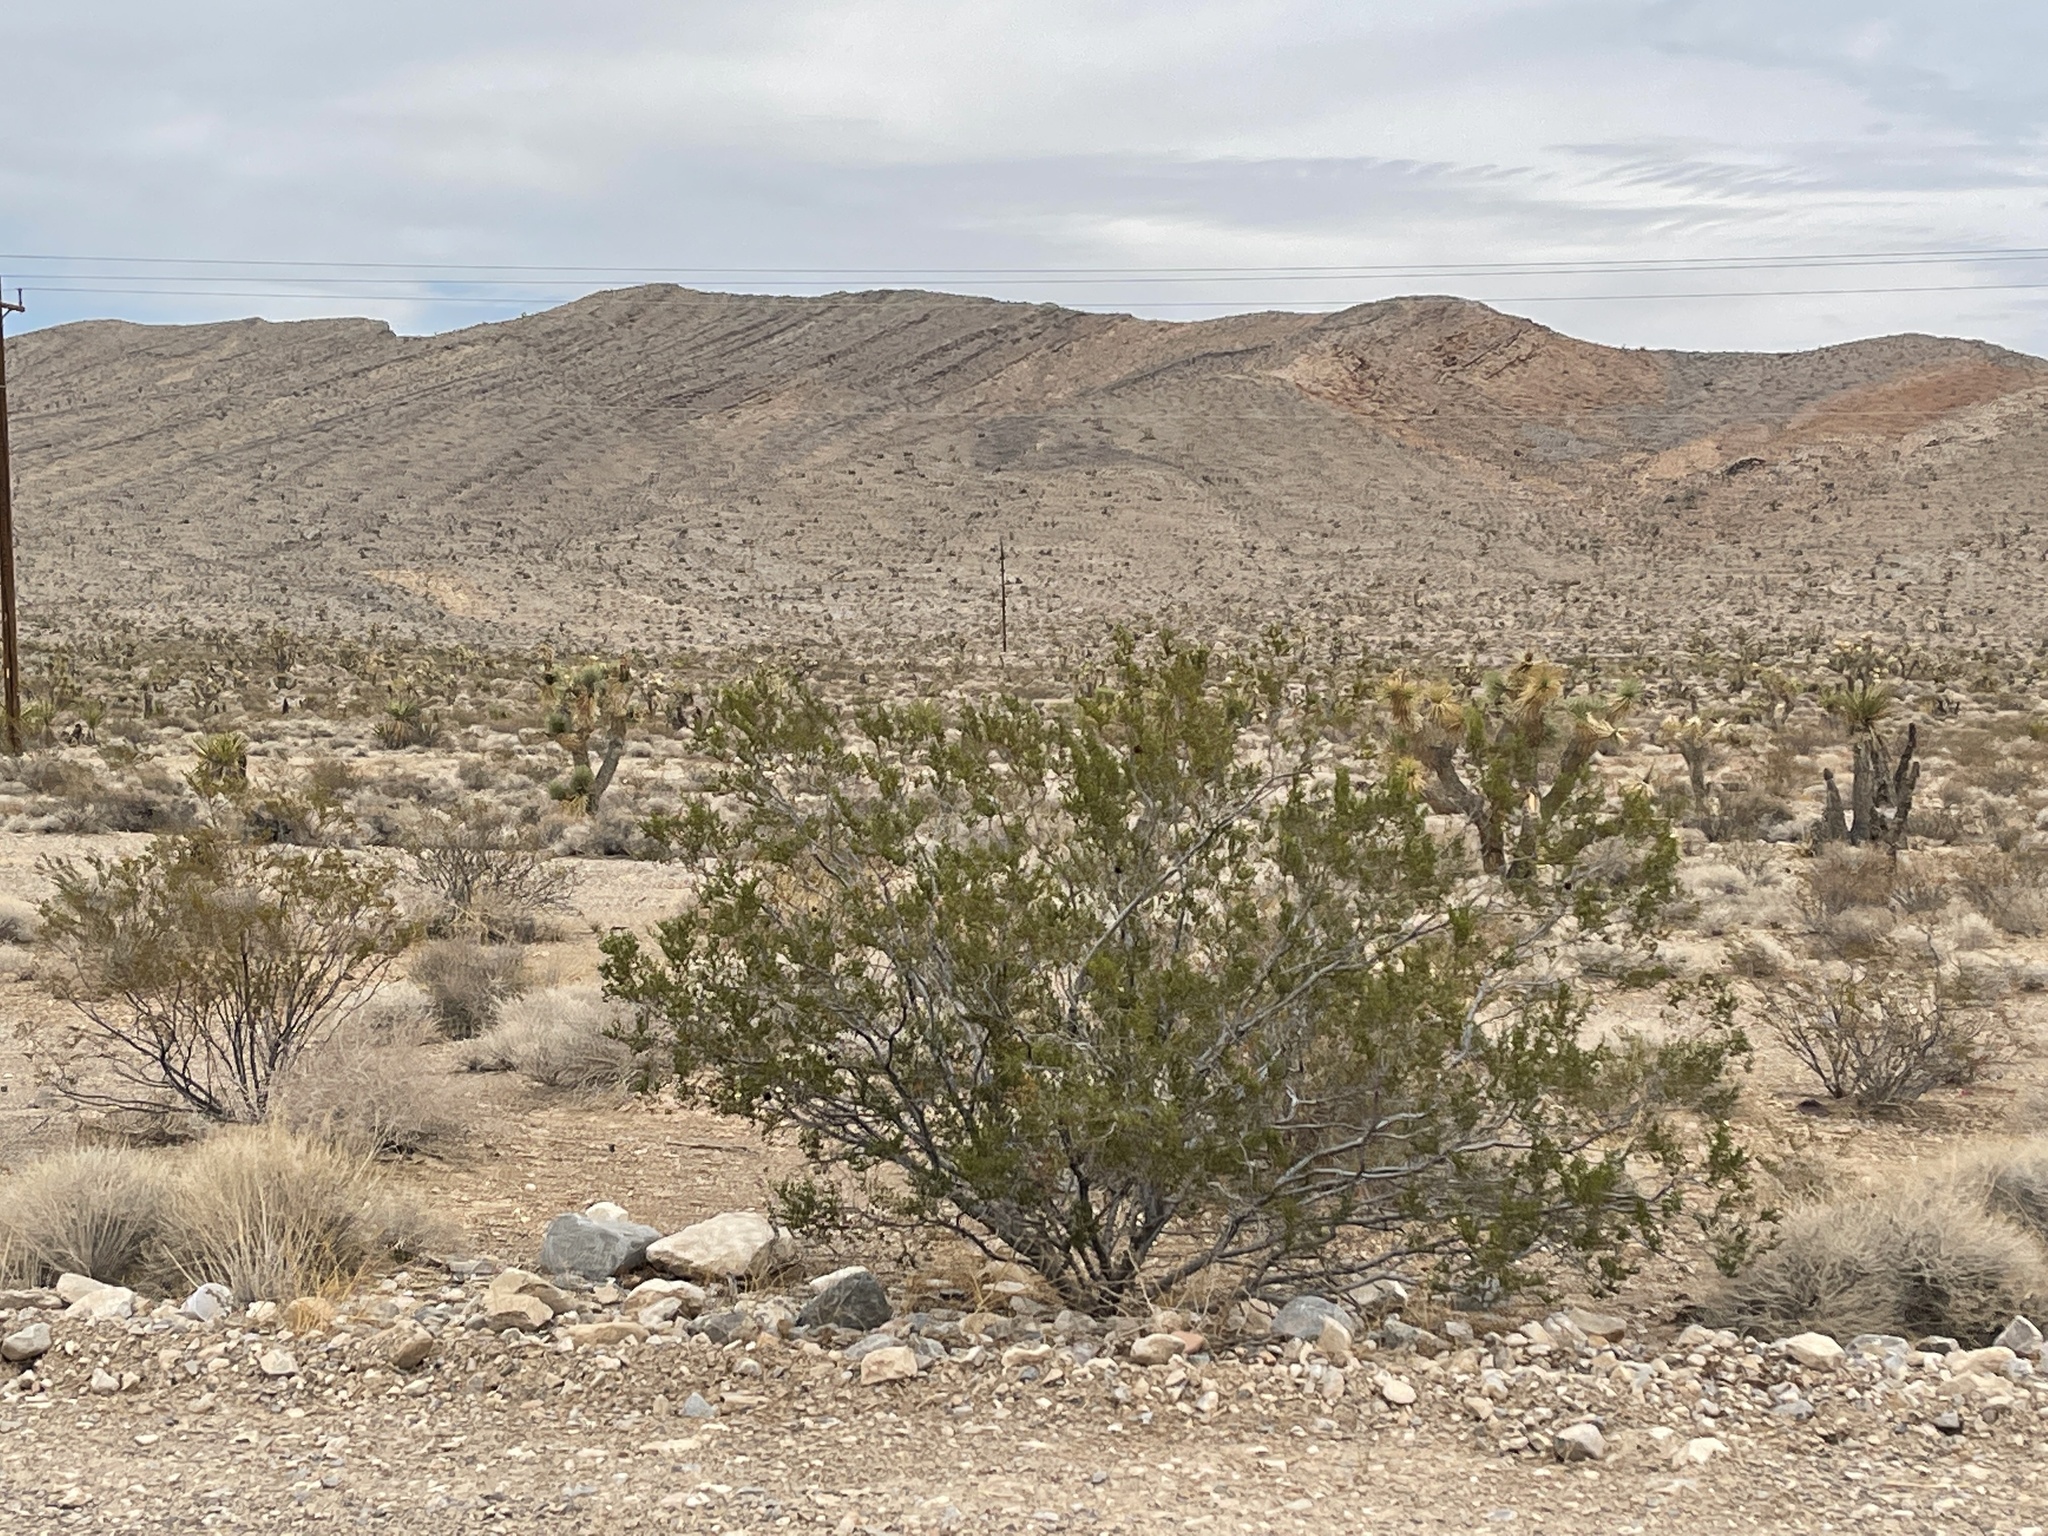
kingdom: Plantae
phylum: Tracheophyta
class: Magnoliopsida
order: Zygophyllales
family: Zygophyllaceae
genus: Larrea
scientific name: Larrea tridentata
